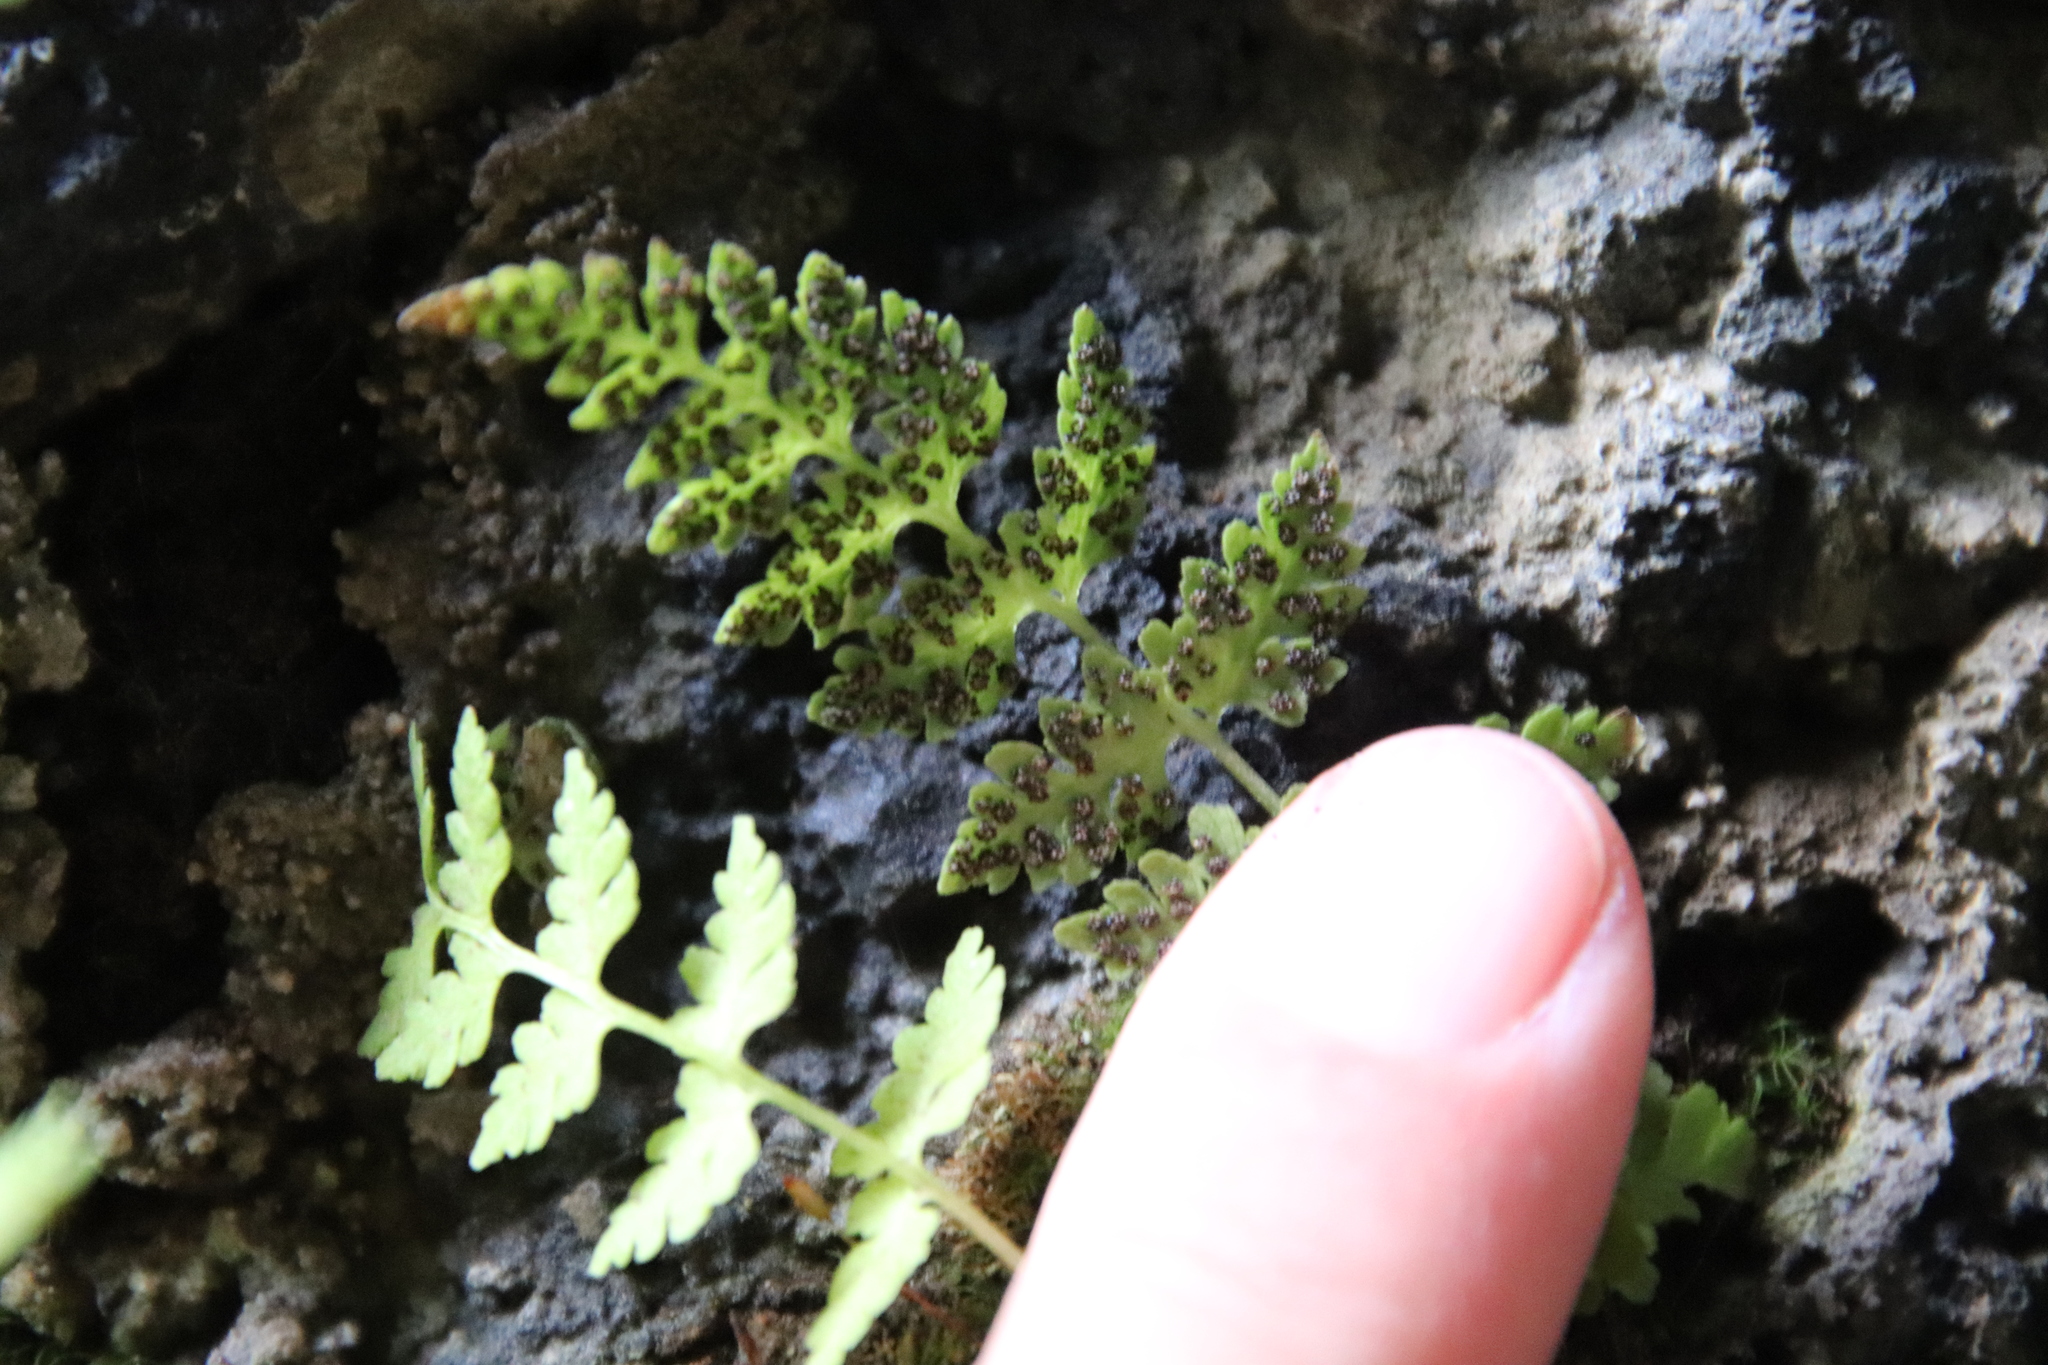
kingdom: Plantae
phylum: Tracheophyta
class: Polypodiopsida
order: Polypodiales
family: Cystopteridaceae
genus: Cystopteris
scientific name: Cystopteris fragilis
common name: Brittle bladder fern
